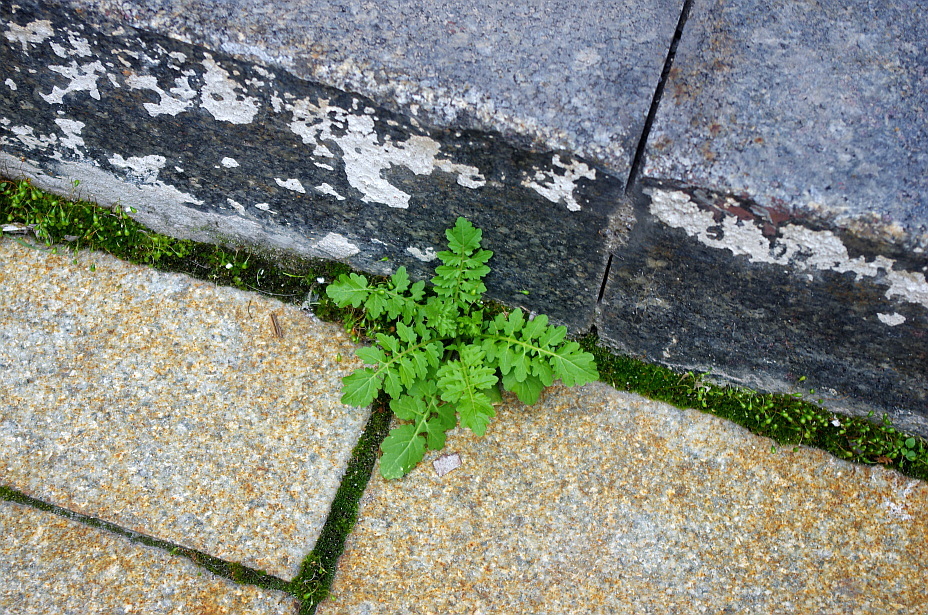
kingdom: Plantae
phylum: Tracheophyta
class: Magnoliopsida
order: Brassicales
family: Brassicaceae
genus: Rorippa
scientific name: Rorippa palustris
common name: Marsh yellow-cress
